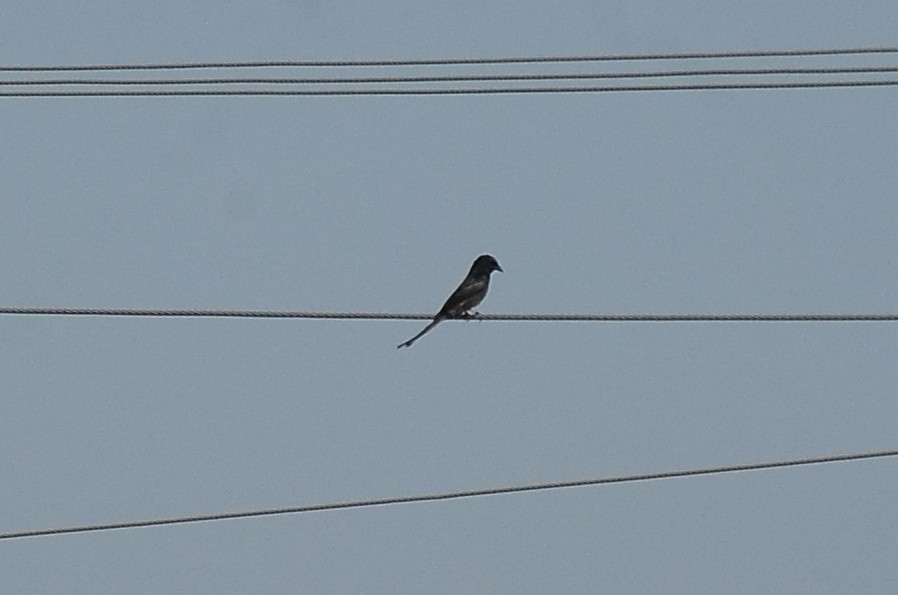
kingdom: Animalia
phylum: Chordata
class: Aves
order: Passeriformes
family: Dicruridae
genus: Dicrurus
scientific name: Dicrurus macrocercus
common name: Black drongo
